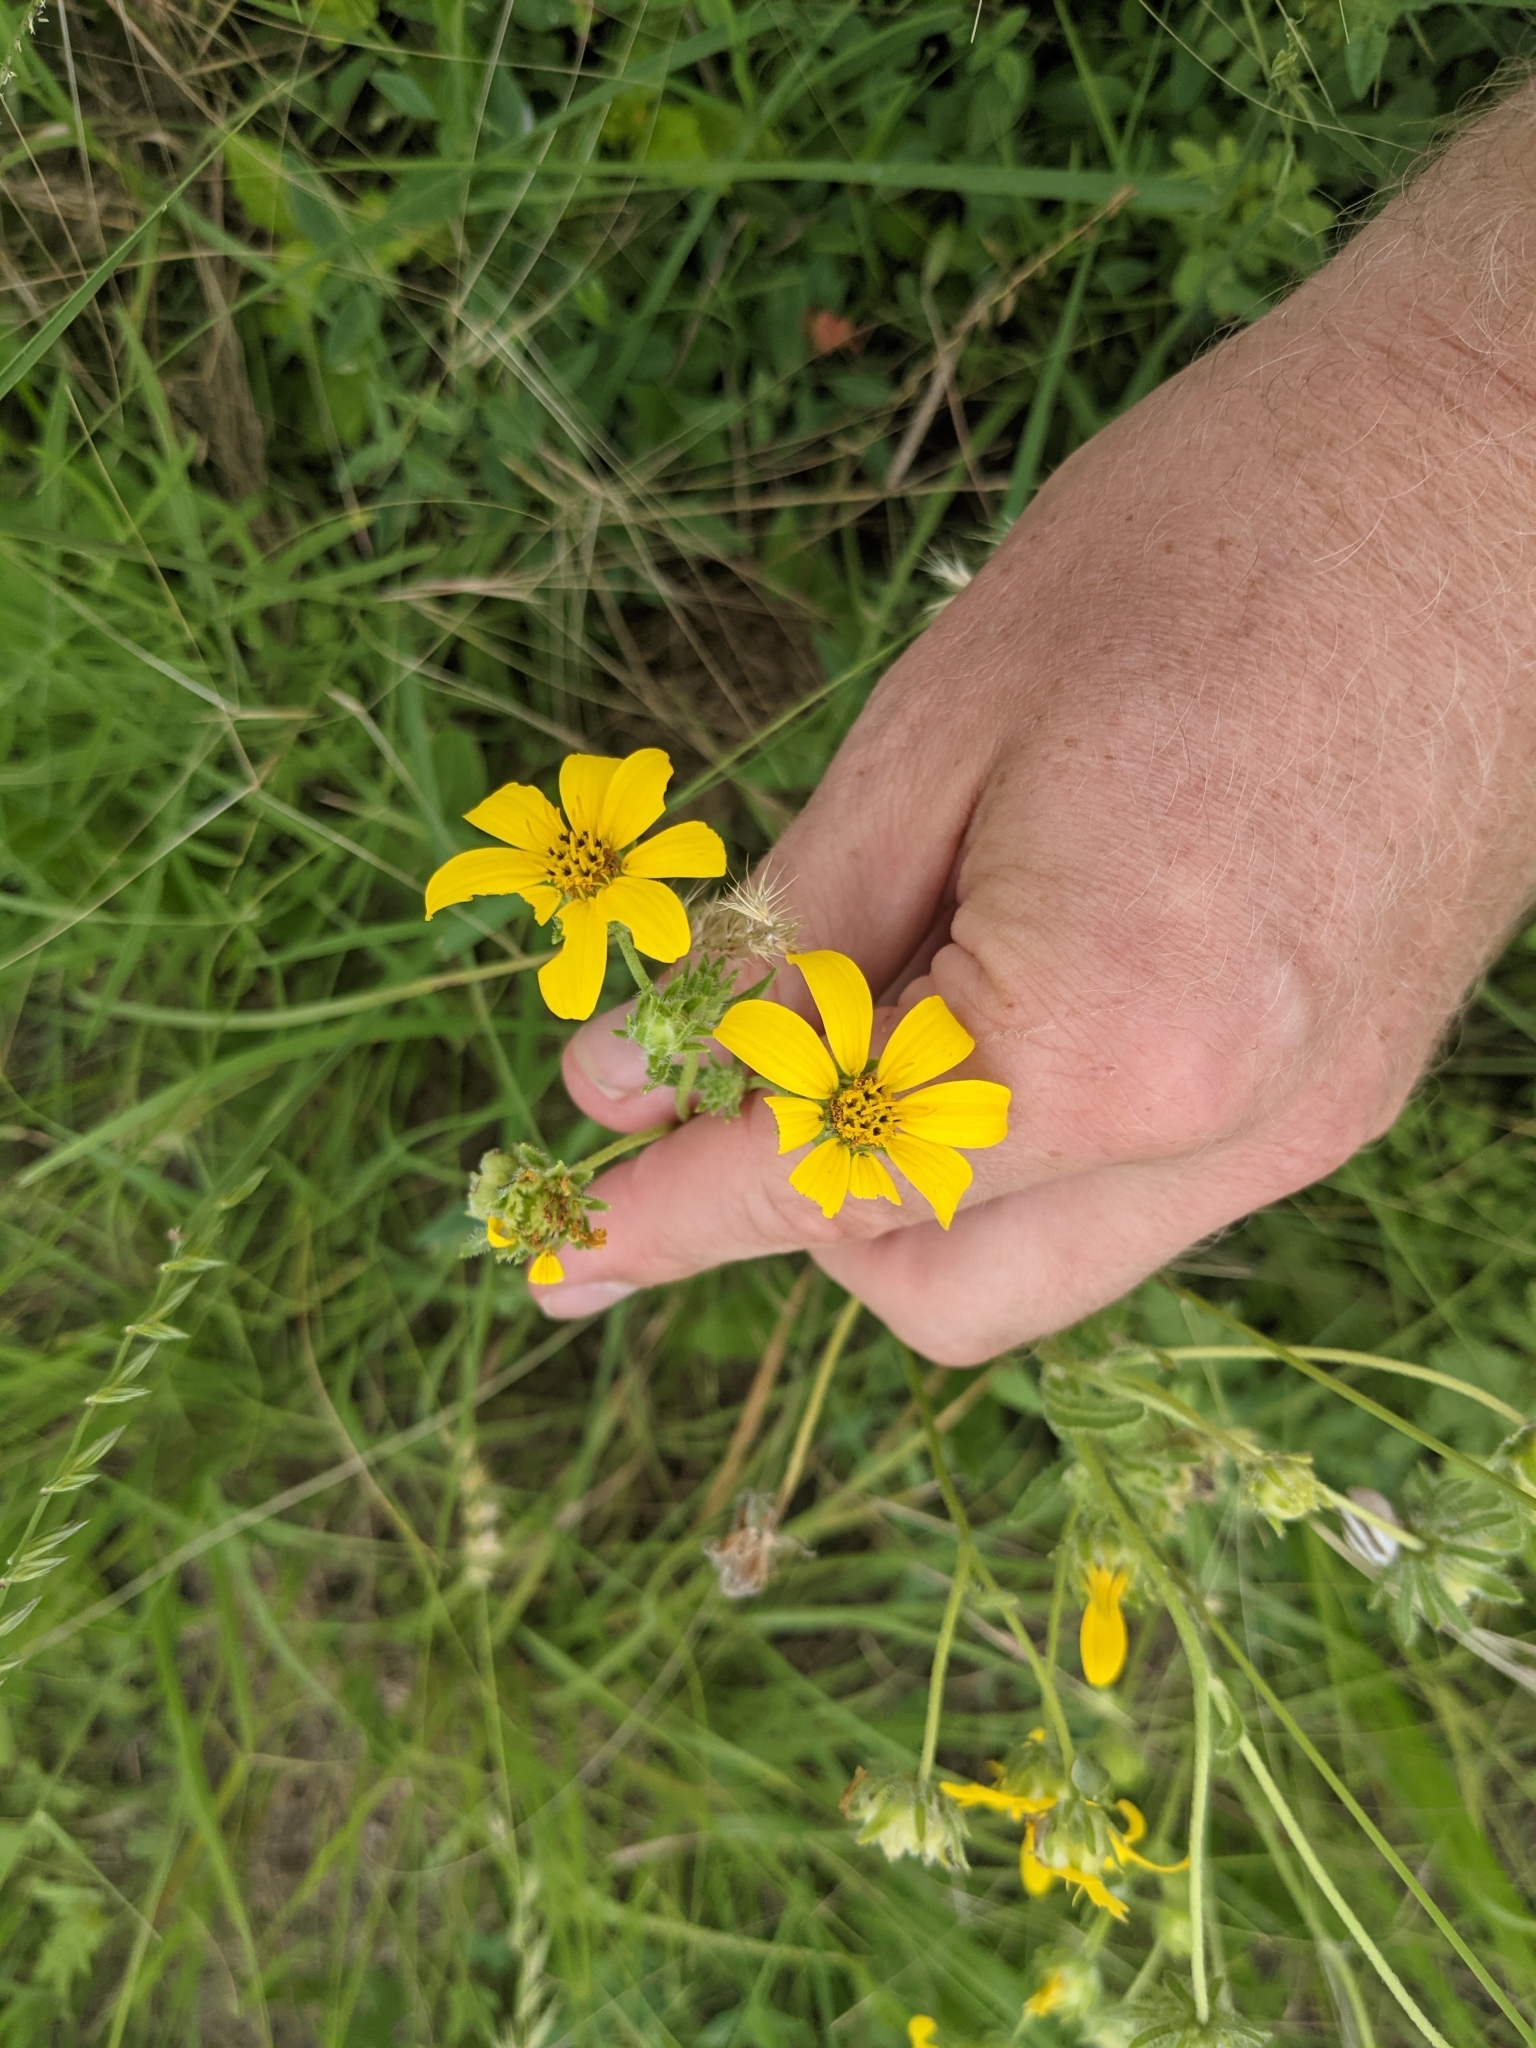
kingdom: Plantae
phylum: Tracheophyta
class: Magnoliopsida
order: Asterales
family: Asteraceae
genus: Engelmannia
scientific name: Engelmannia peristenia
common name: Engelmann's daisy
